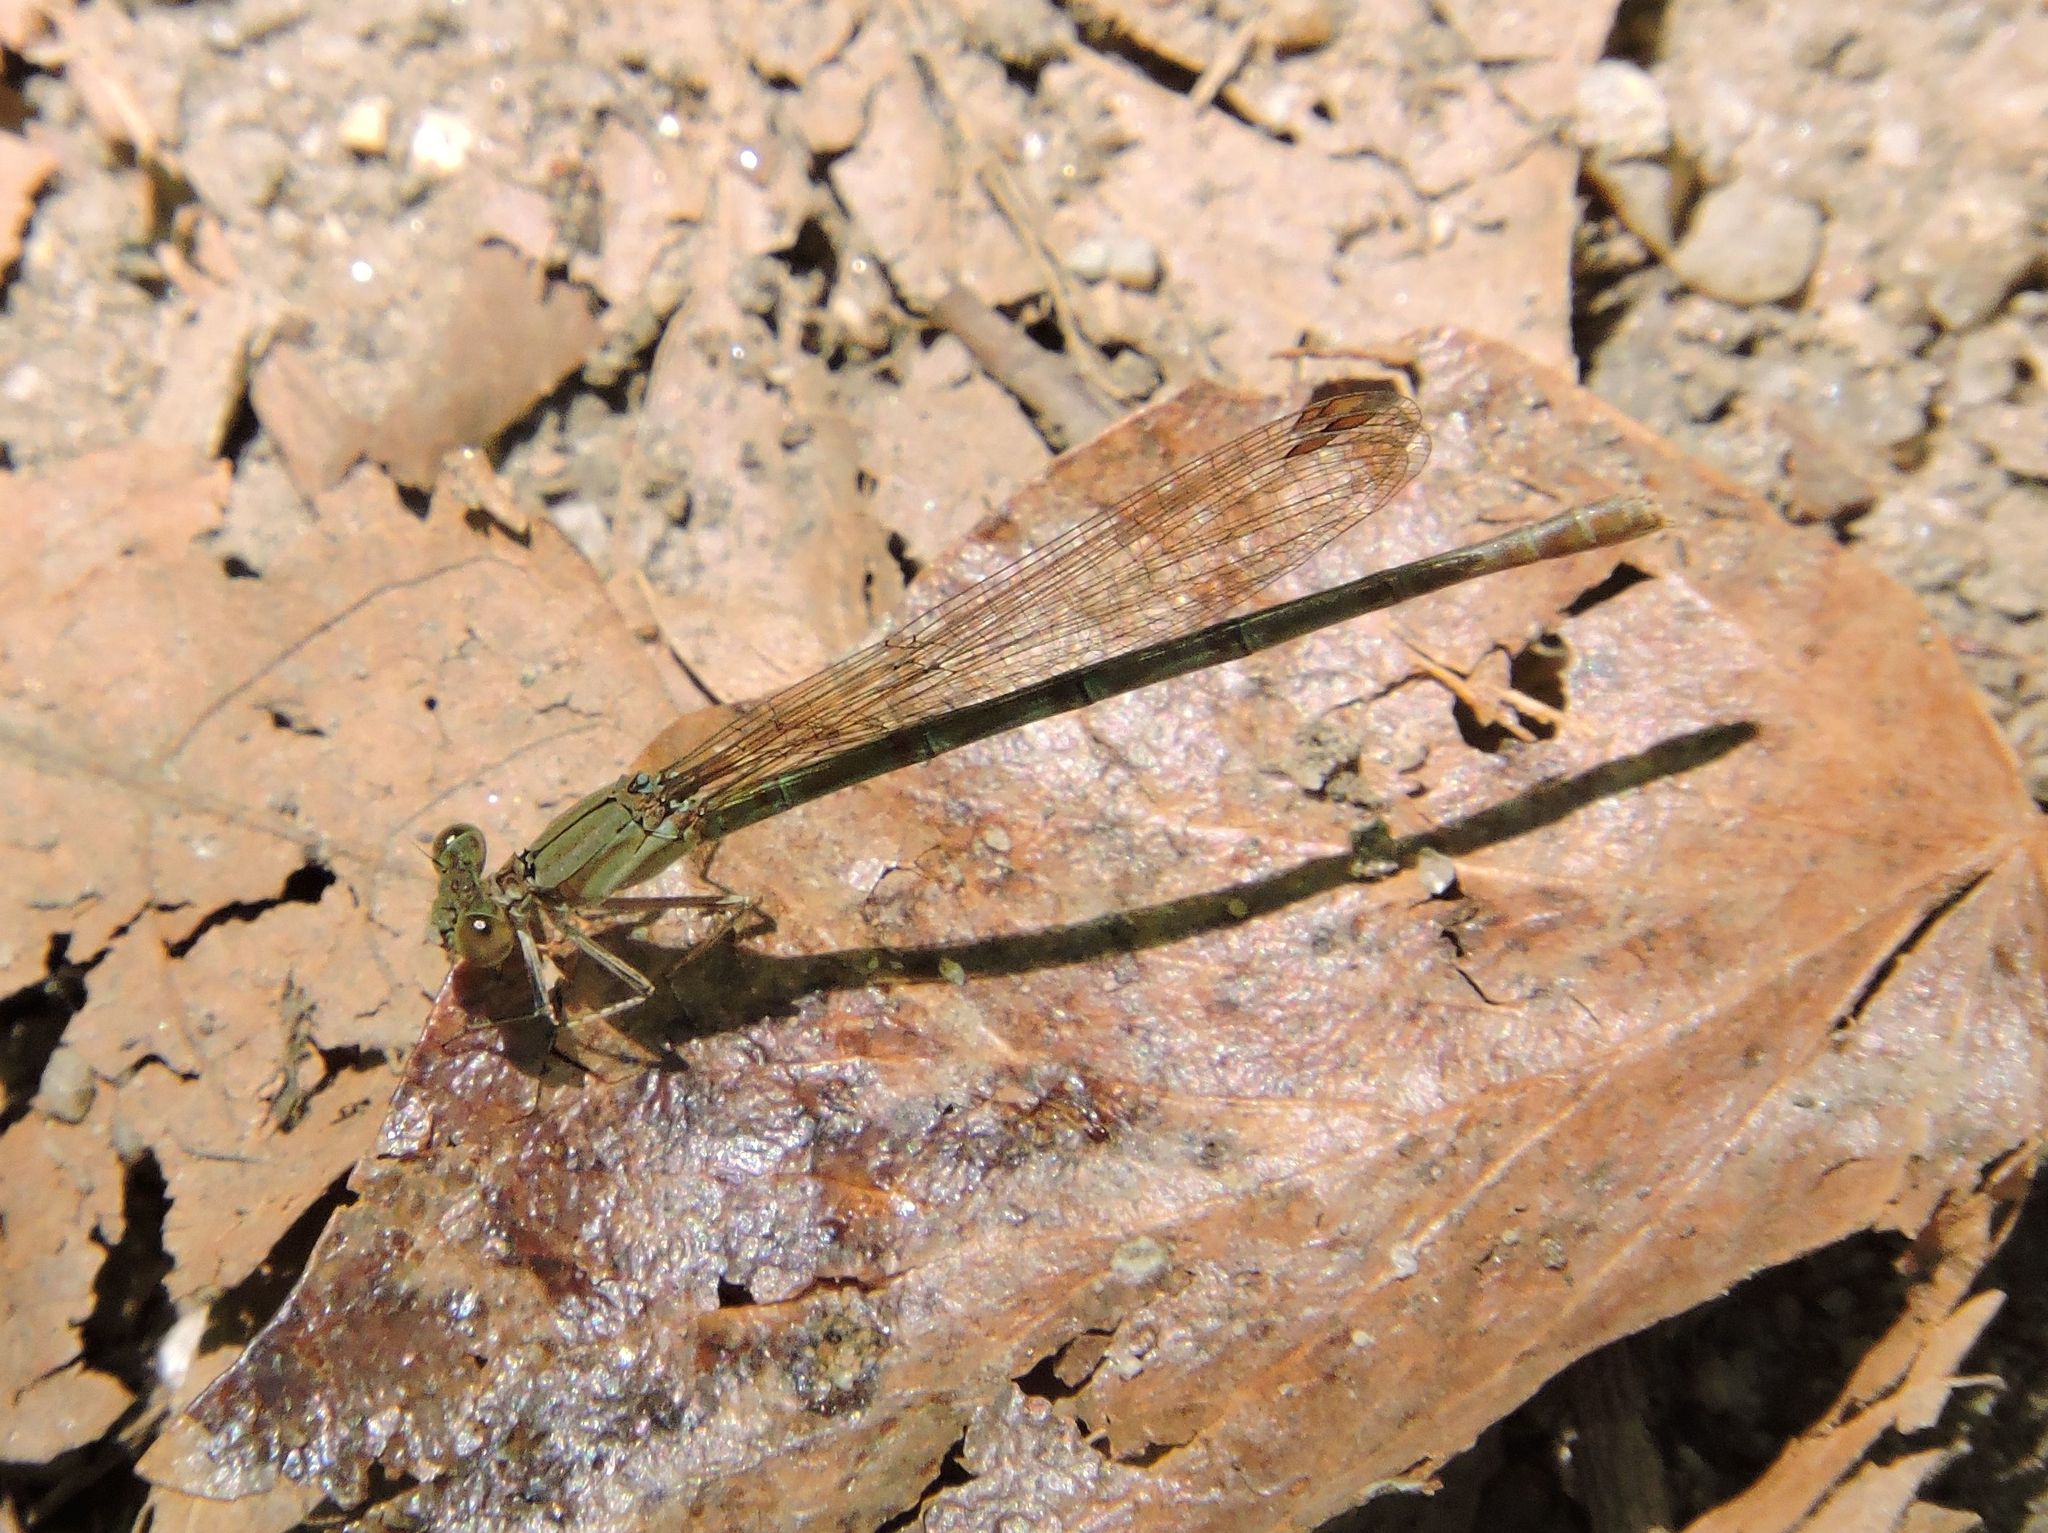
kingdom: Animalia
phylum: Arthropoda
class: Insecta
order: Odonata
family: Coenagrionidae
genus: Argia
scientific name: Argia sedula
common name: Blue-ringed dancer
